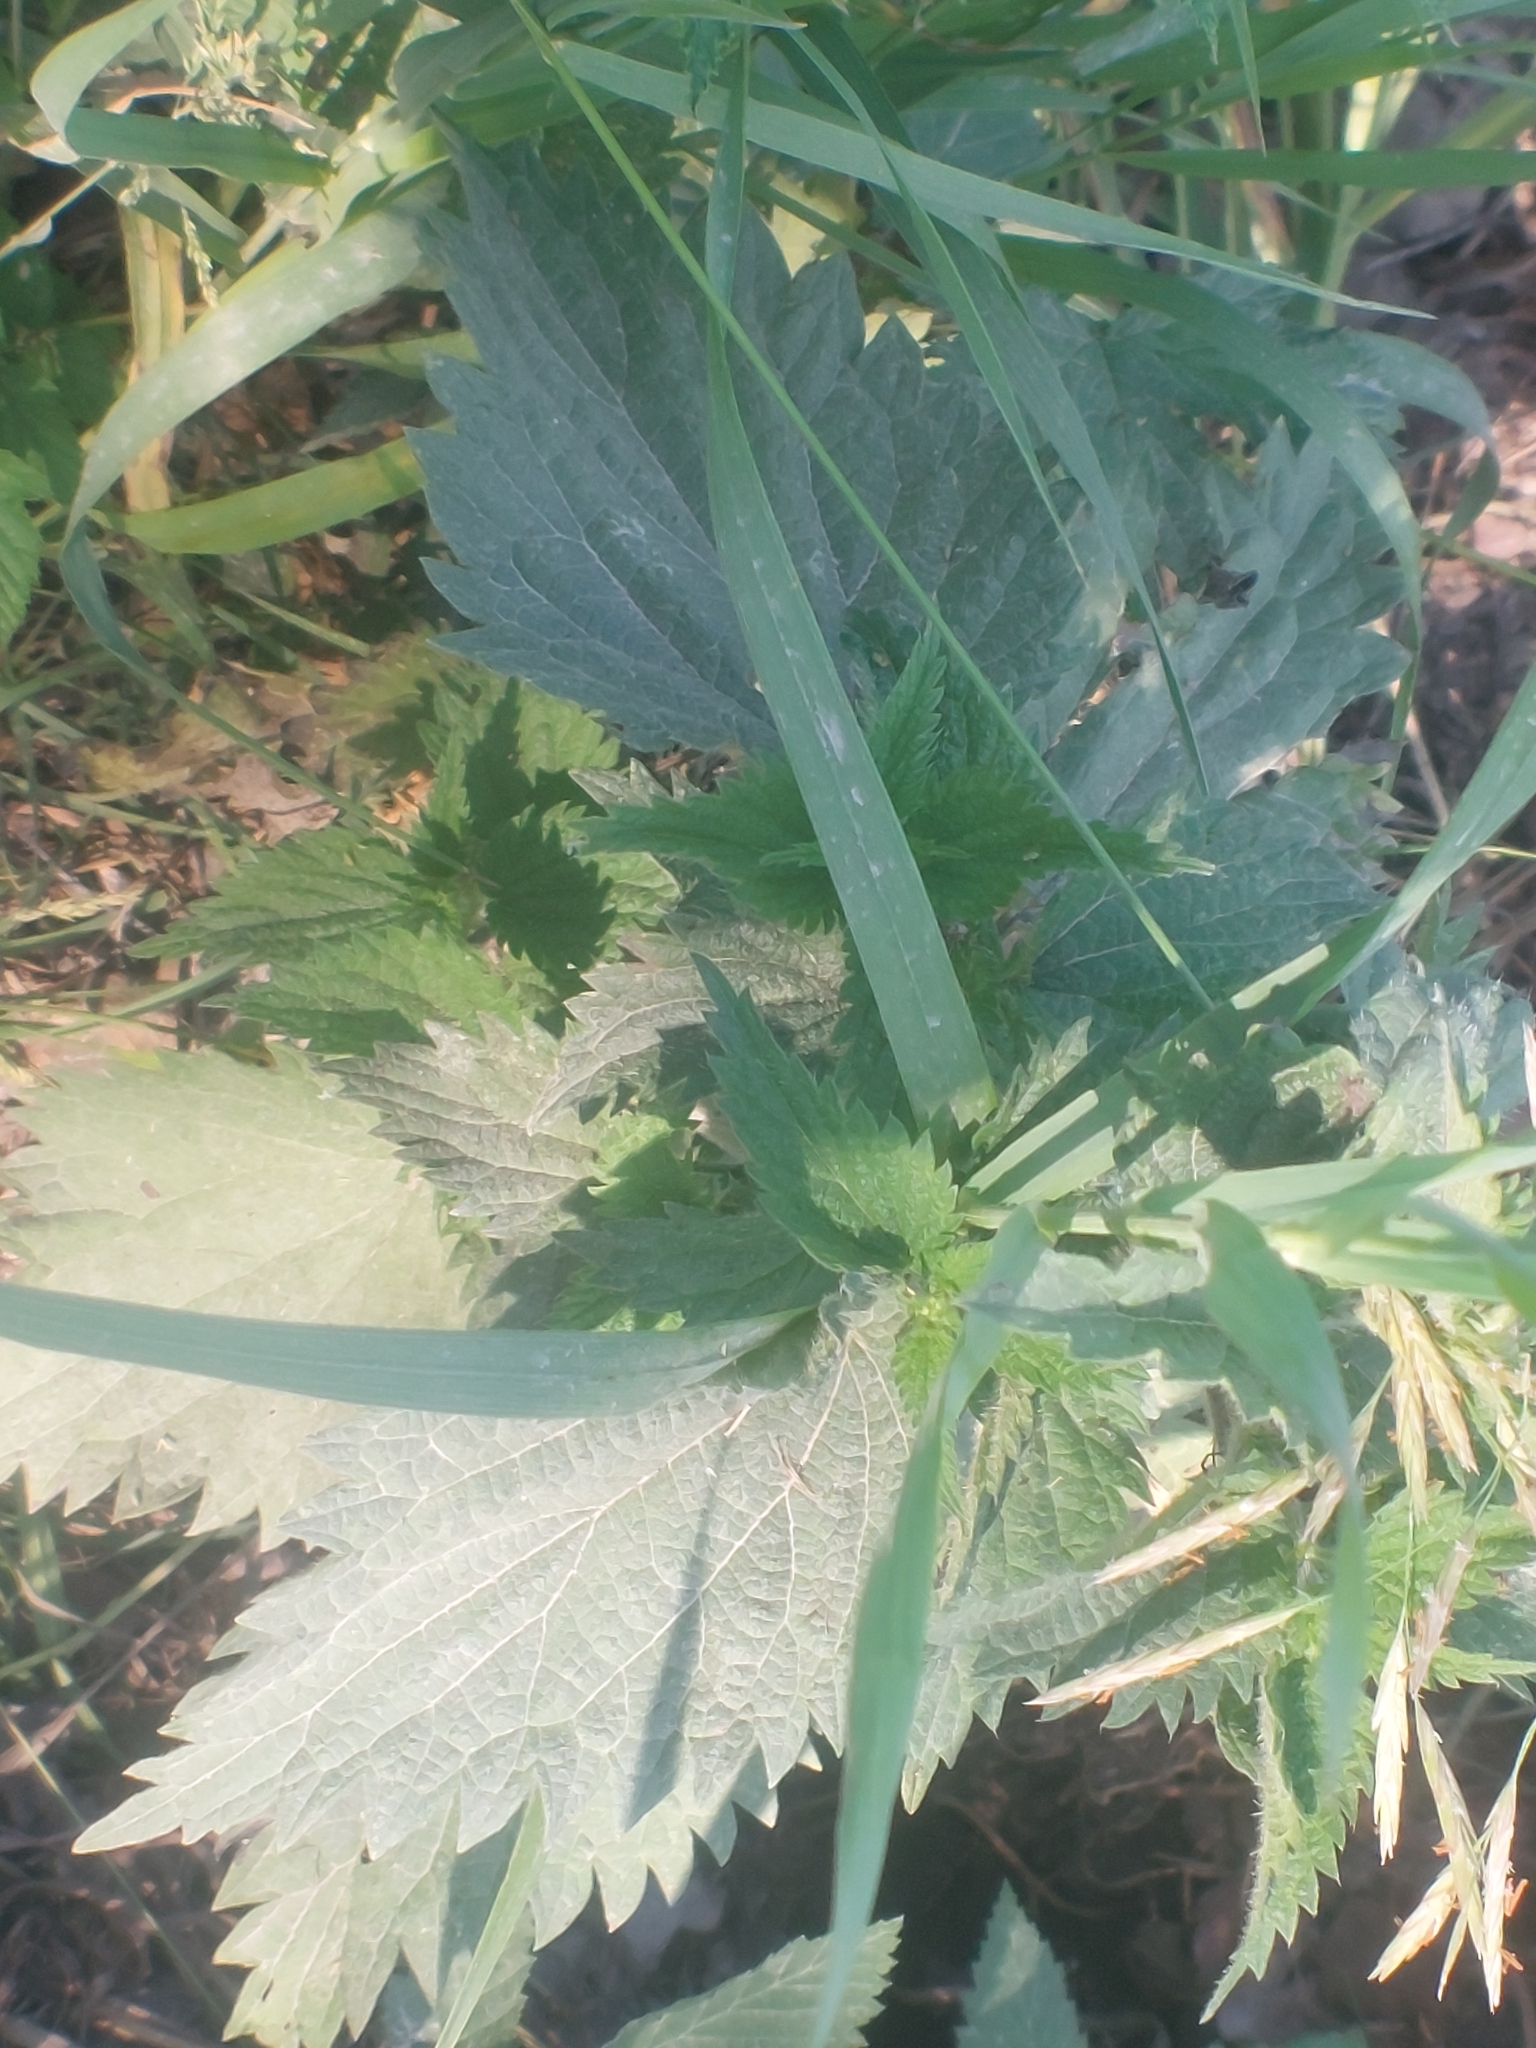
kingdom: Plantae
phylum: Tracheophyta
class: Magnoliopsida
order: Rosales
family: Urticaceae
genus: Urtica
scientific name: Urtica dioica
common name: Common nettle
